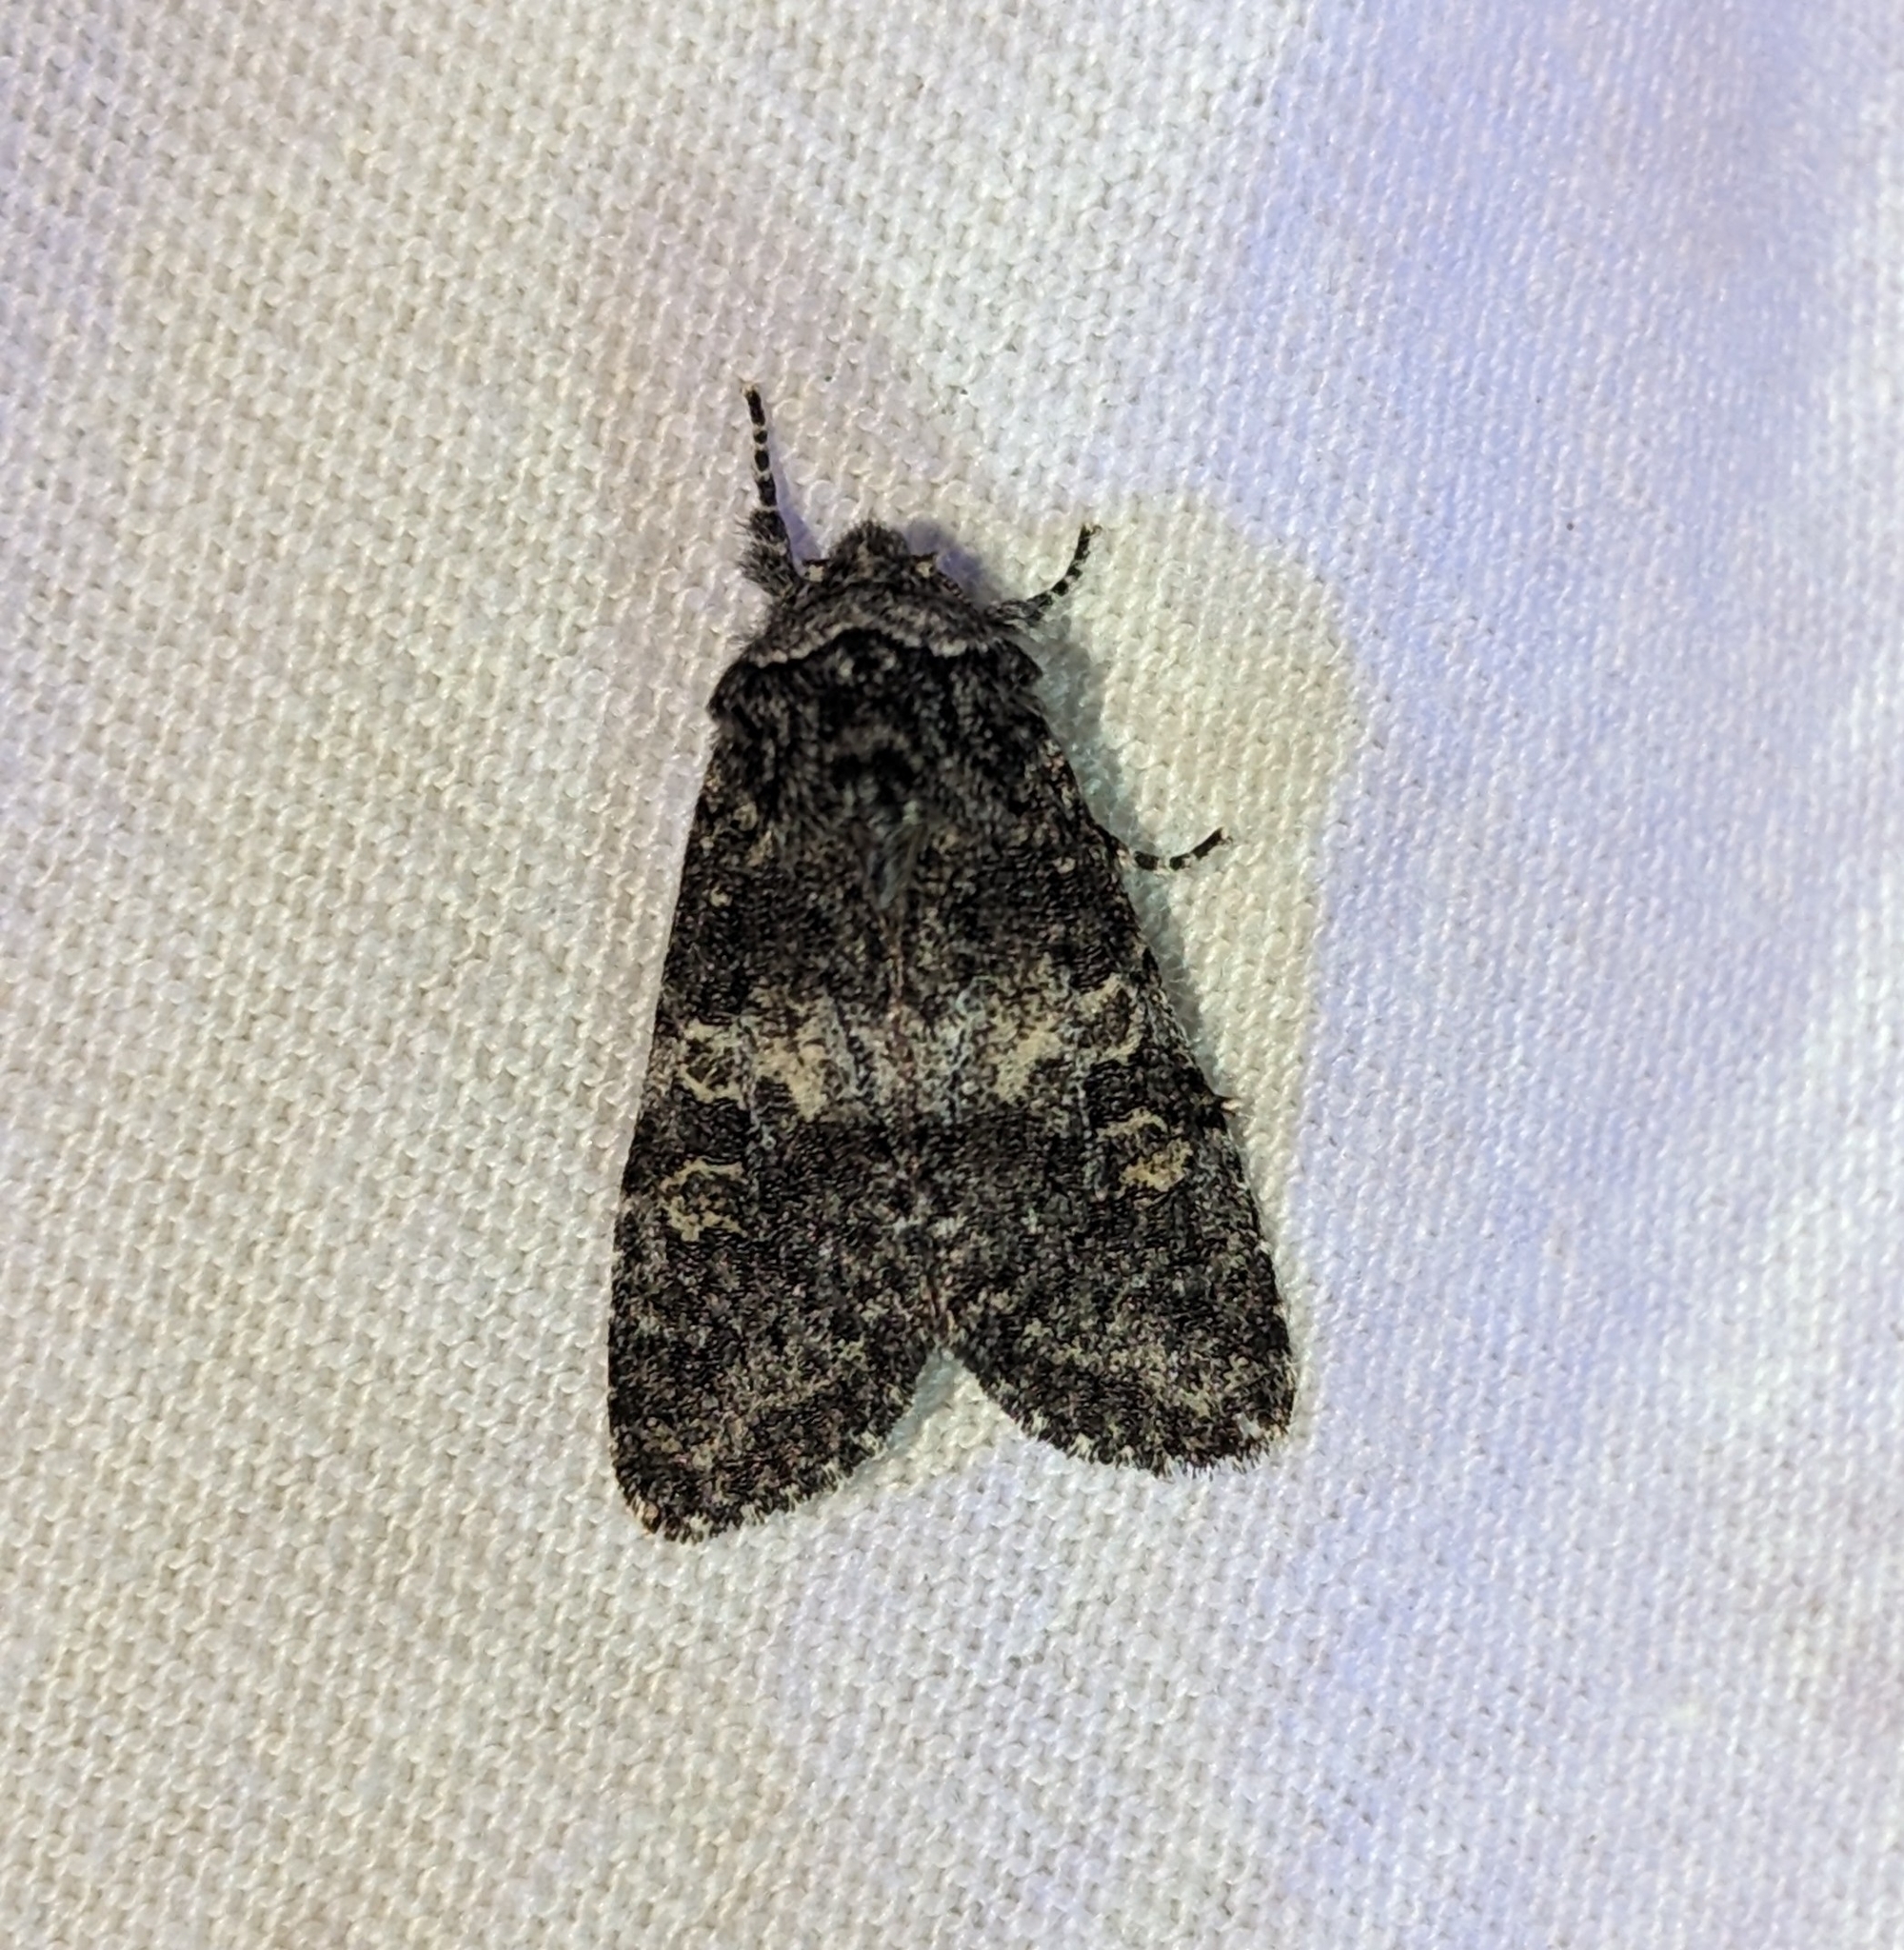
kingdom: Animalia
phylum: Arthropoda
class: Insecta
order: Lepidoptera
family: Noctuidae
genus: Egira
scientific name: Egira dolosa
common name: Lined black aspen cat.
